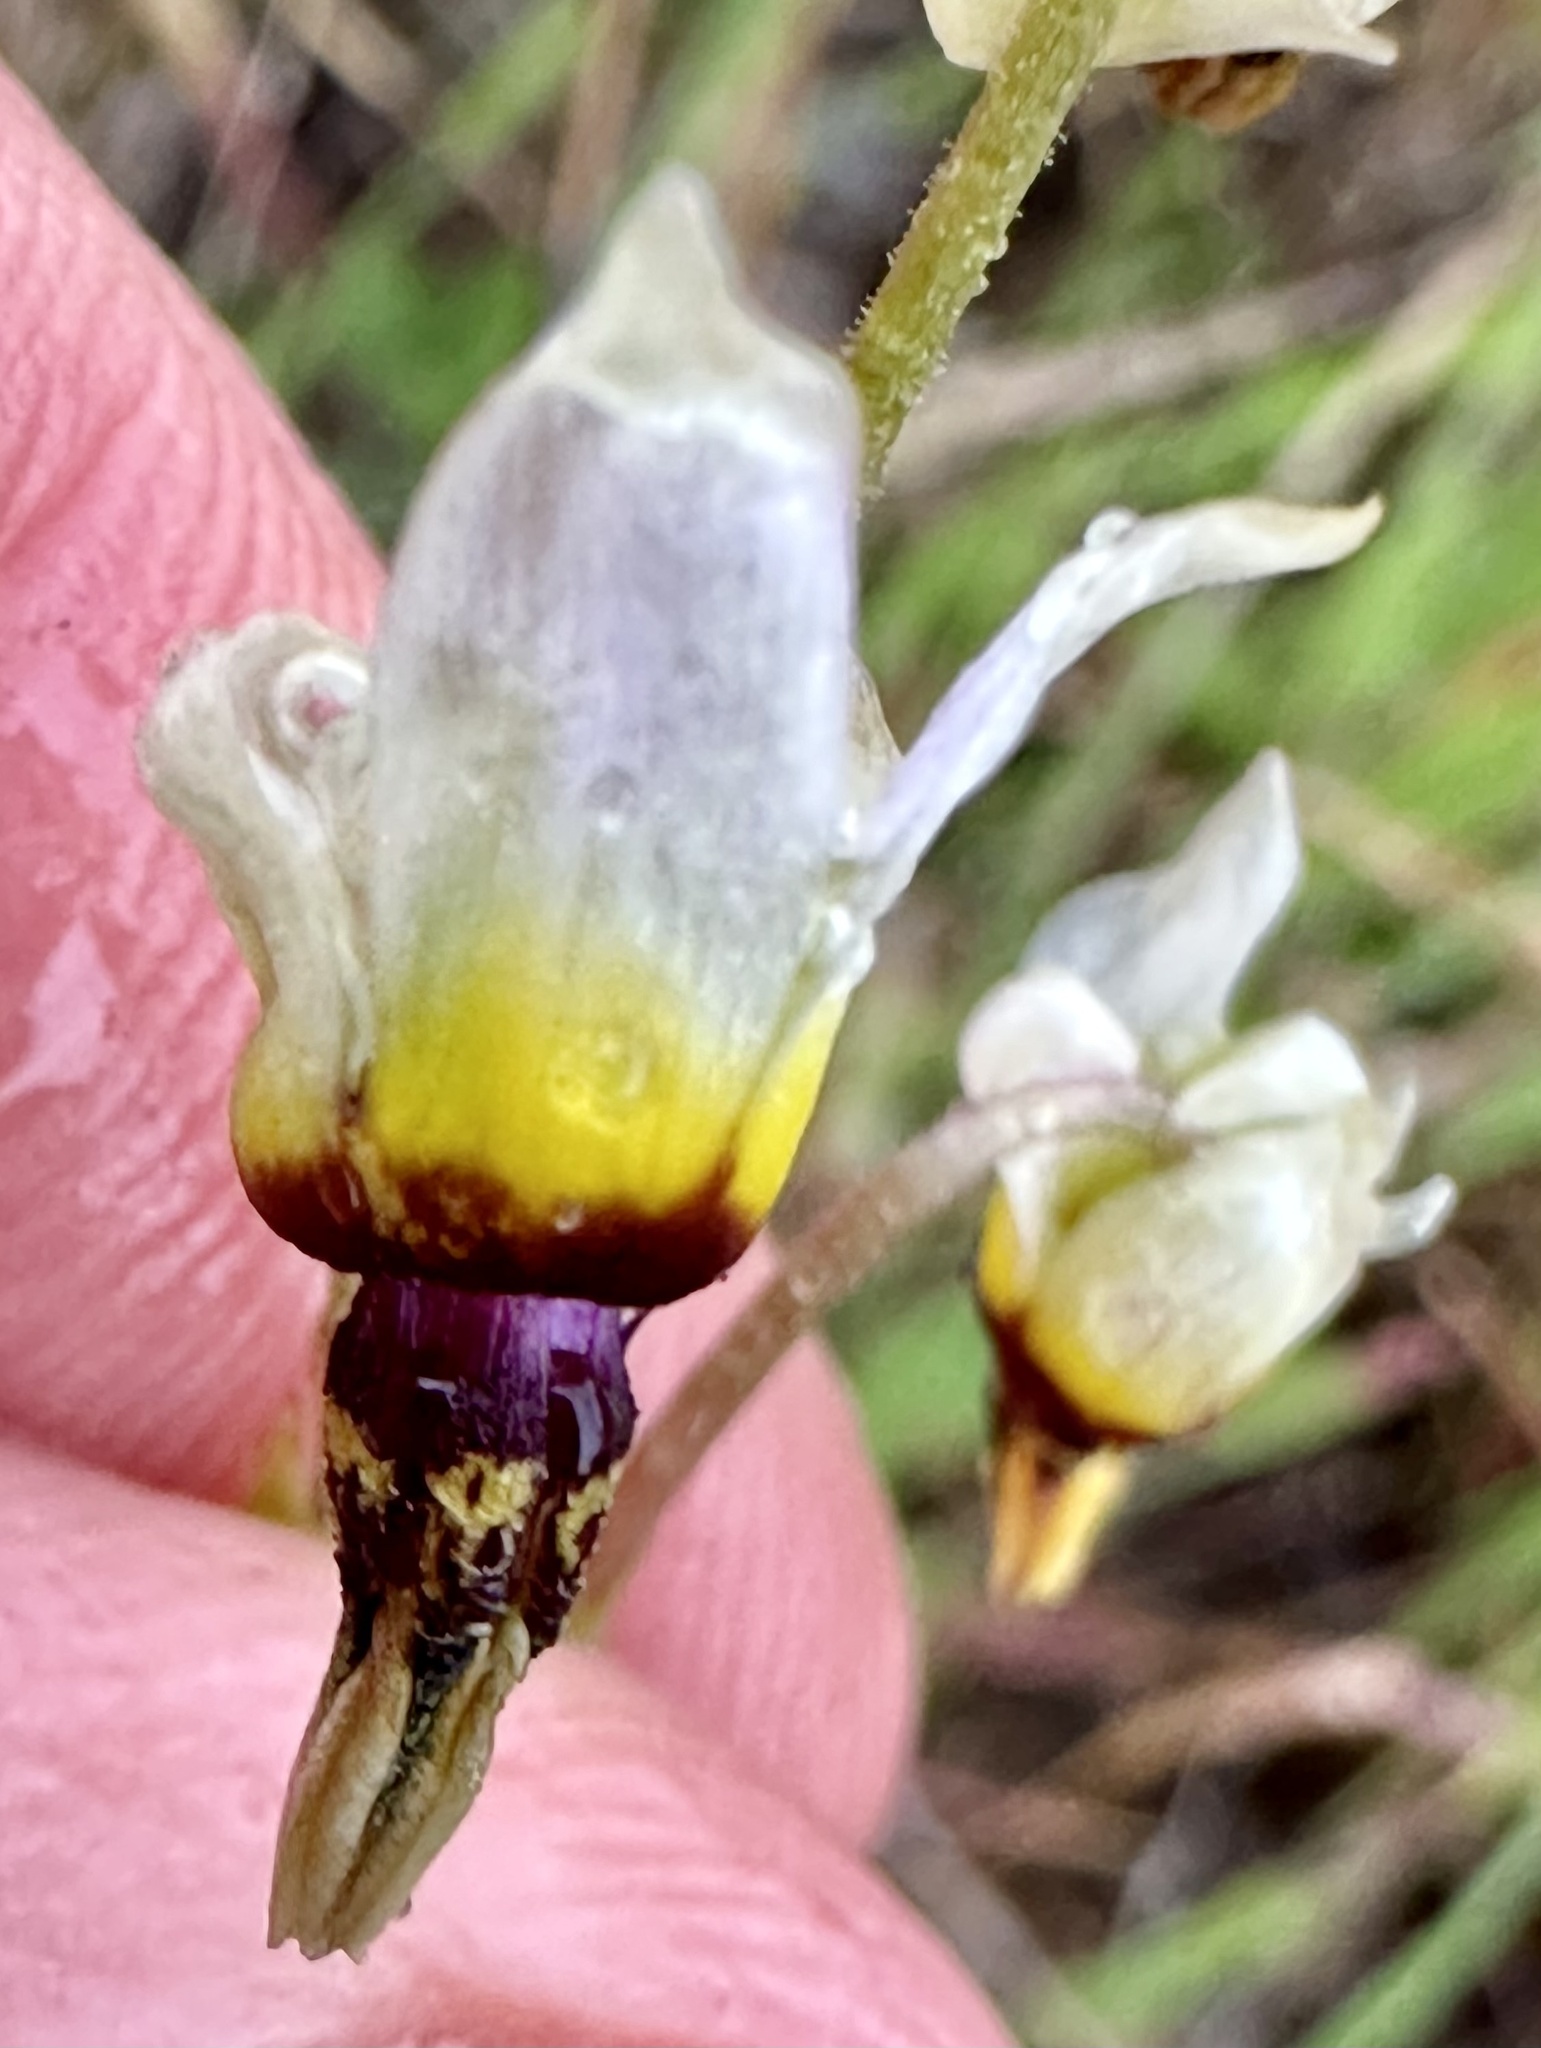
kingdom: Plantae
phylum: Tracheophyta
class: Magnoliopsida
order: Ericales
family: Primulaceae
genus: Dodecatheon
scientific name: Dodecatheon clevelandii
